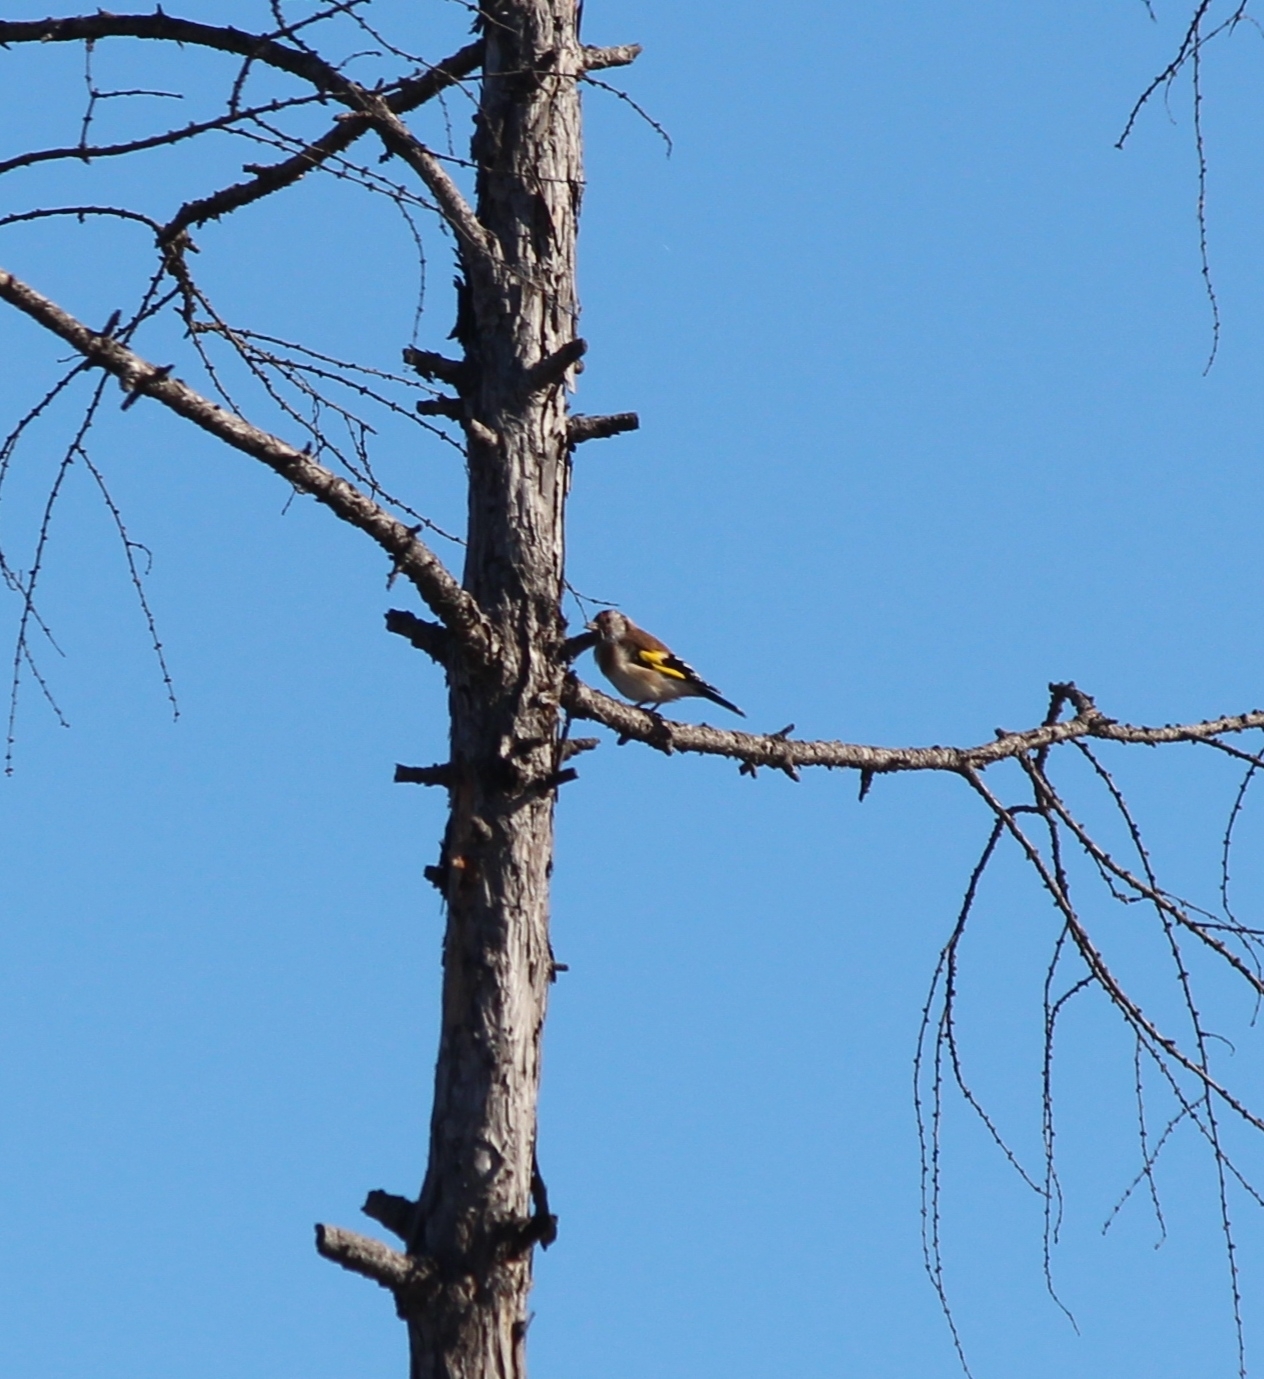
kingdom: Animalia
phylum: Chordata
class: Aves
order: Passeriformes
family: Fringillidae
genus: Carduelis
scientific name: Carduelis carduelis
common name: European goldfinch
